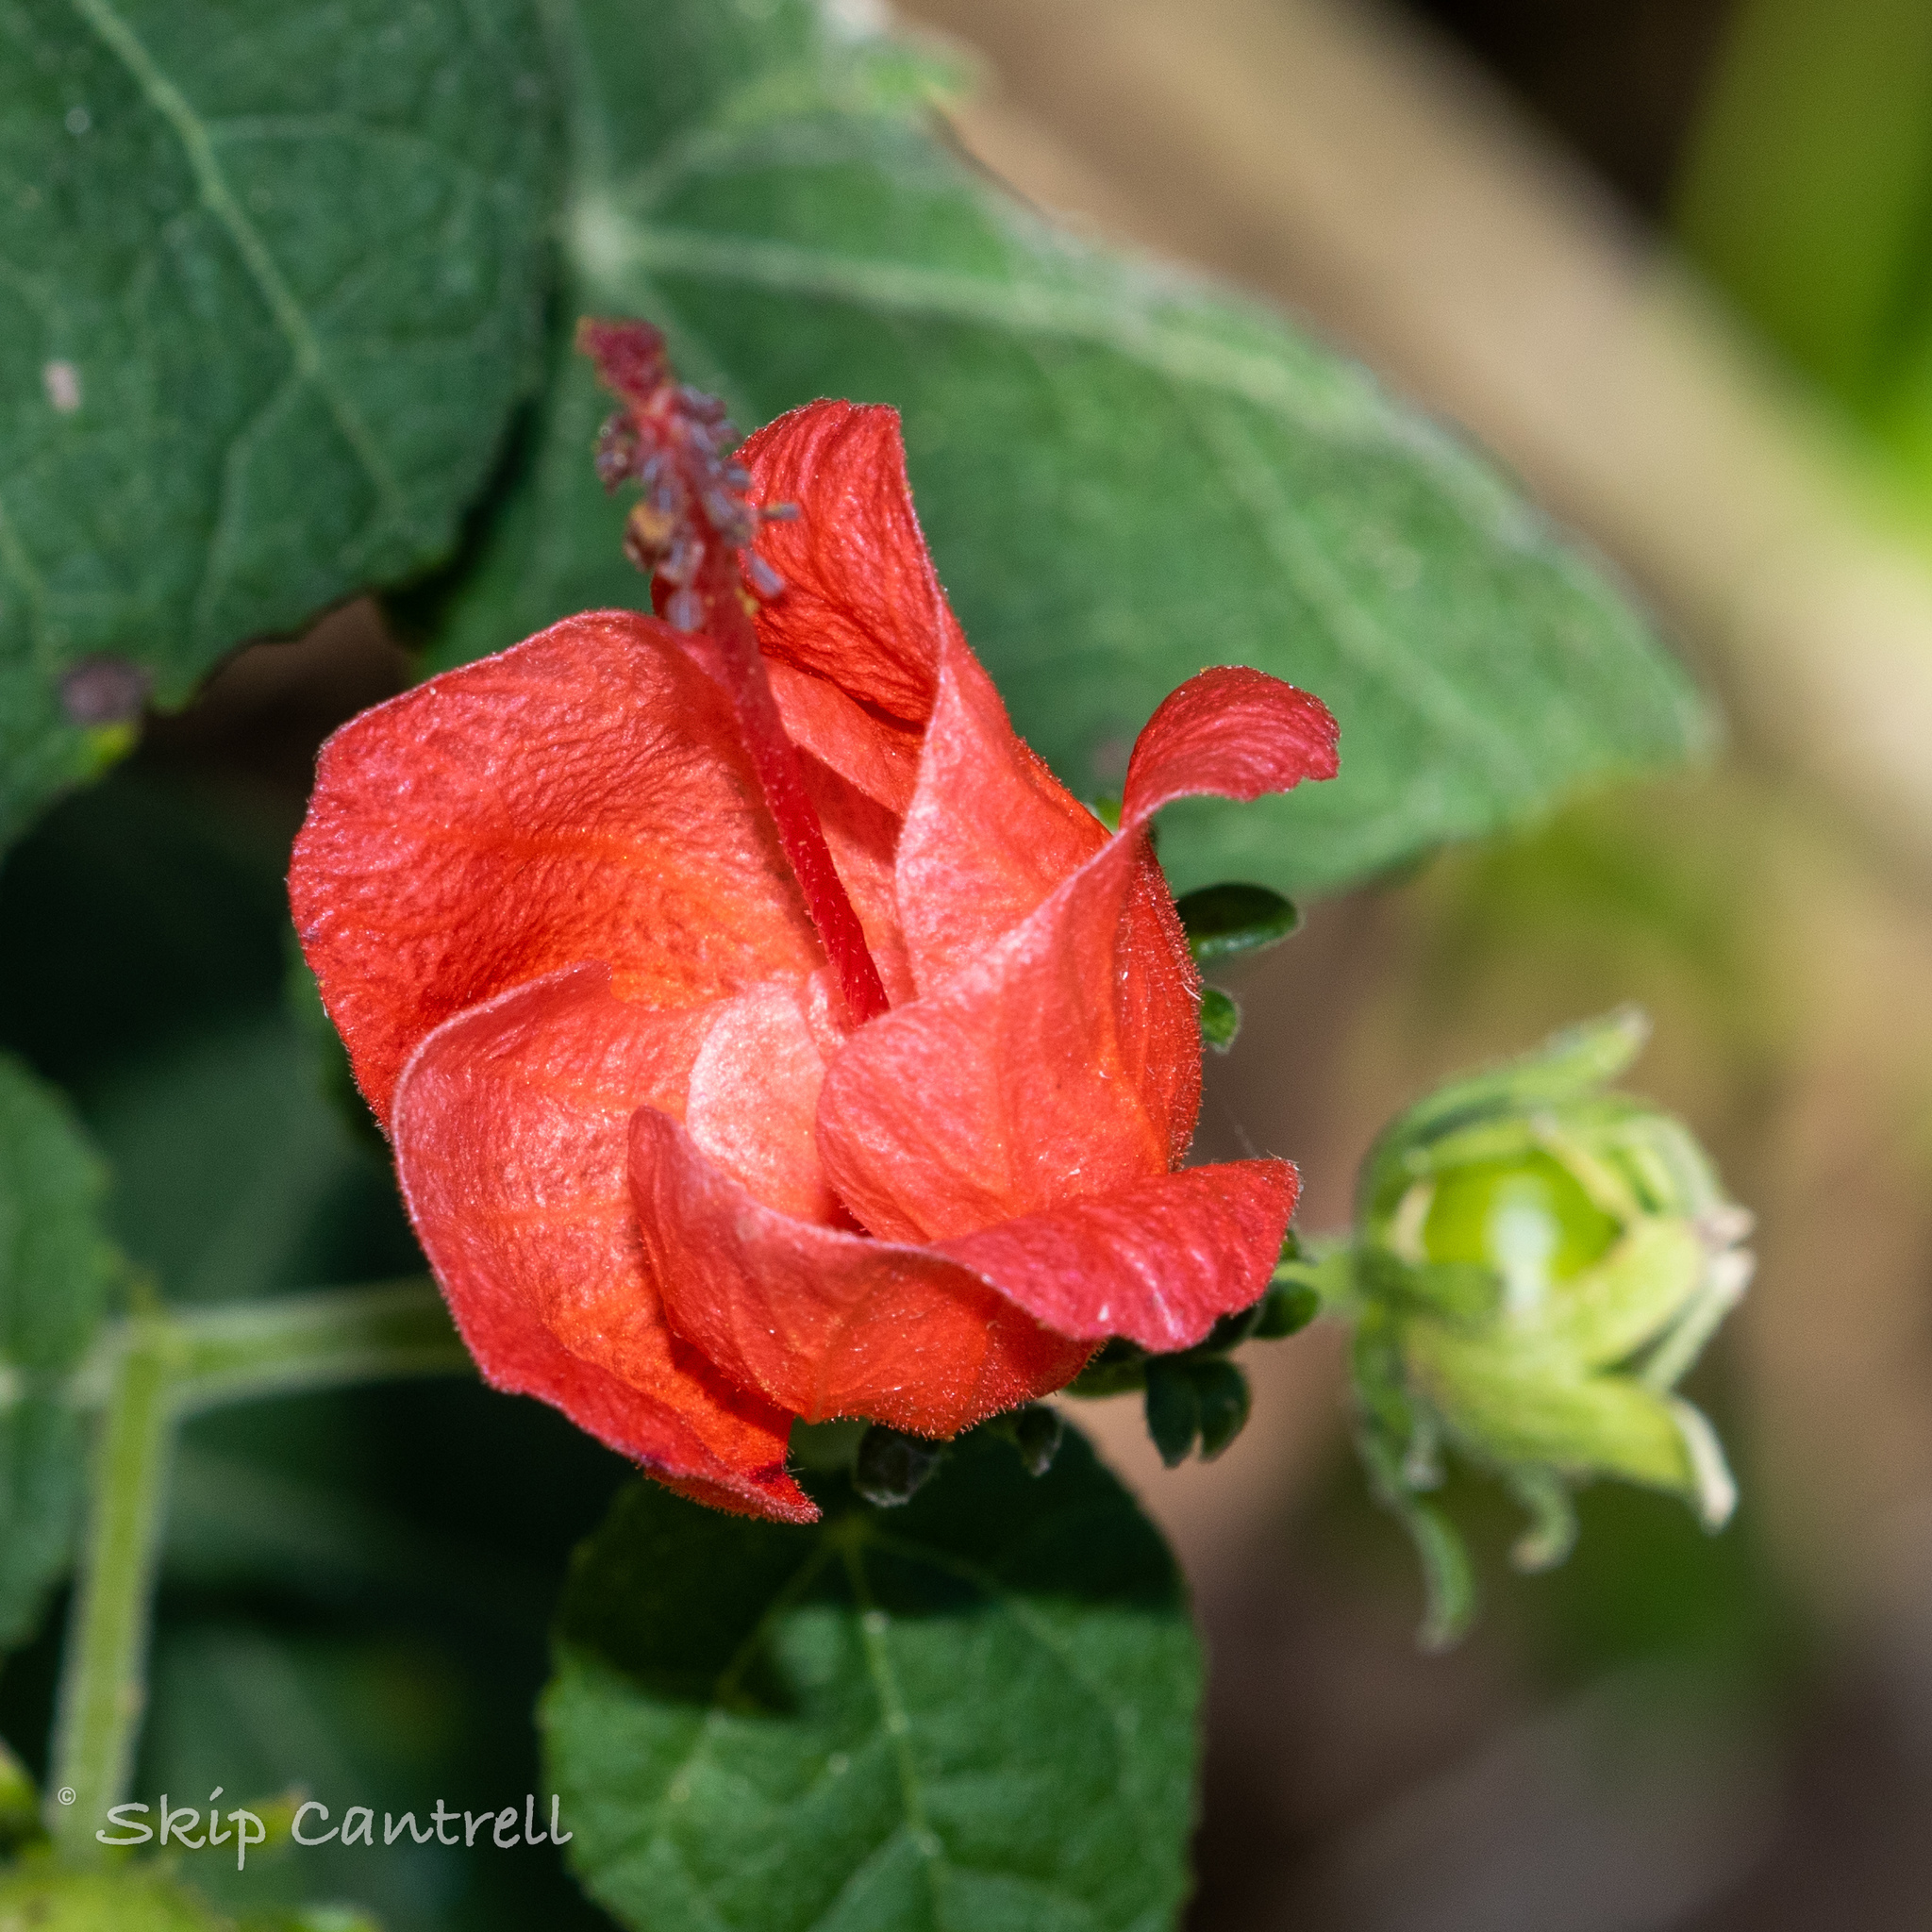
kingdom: Plantae
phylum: Tracheophyta
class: Magnoliopsida
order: Malvales
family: Malvaceae
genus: Malvaviscus
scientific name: Malvaviscus arboreus
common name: Wax mallow
